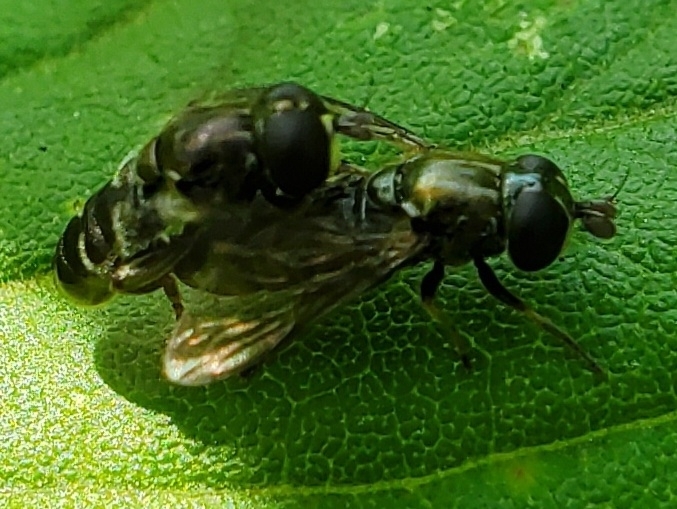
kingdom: Animalia
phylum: Arthropoda
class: Insecta
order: Diptera
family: Syrphidae
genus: Eumerus
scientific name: Eumerus
